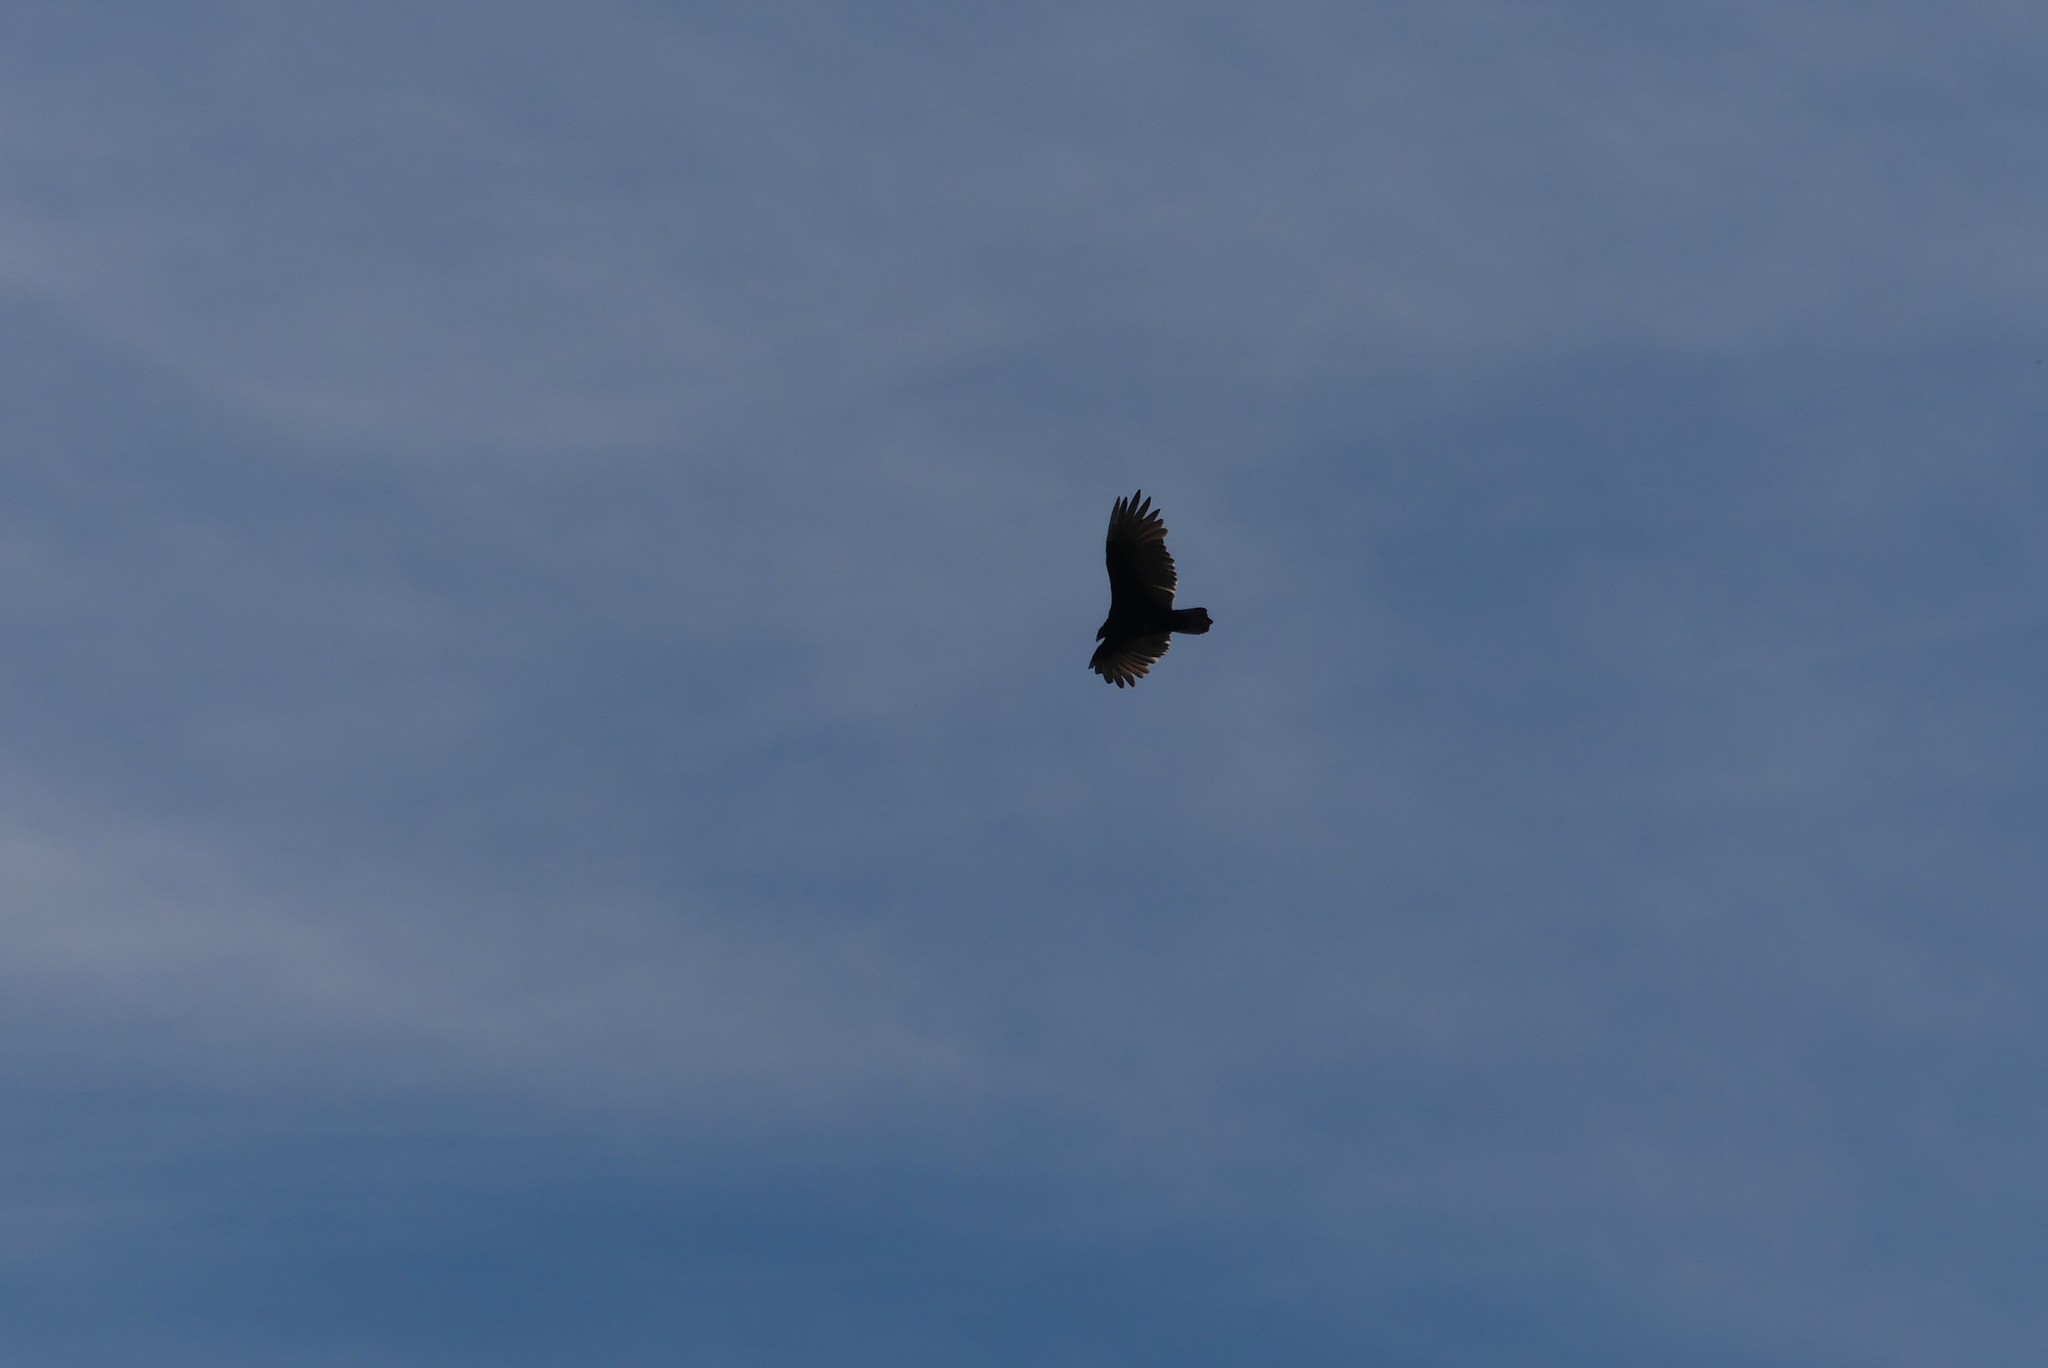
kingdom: Animalia
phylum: Chordata
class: Aves
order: Accipitriformes
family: Cathartidae
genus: Cathartes
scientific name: Cathartes aura
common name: Turkey vulture
